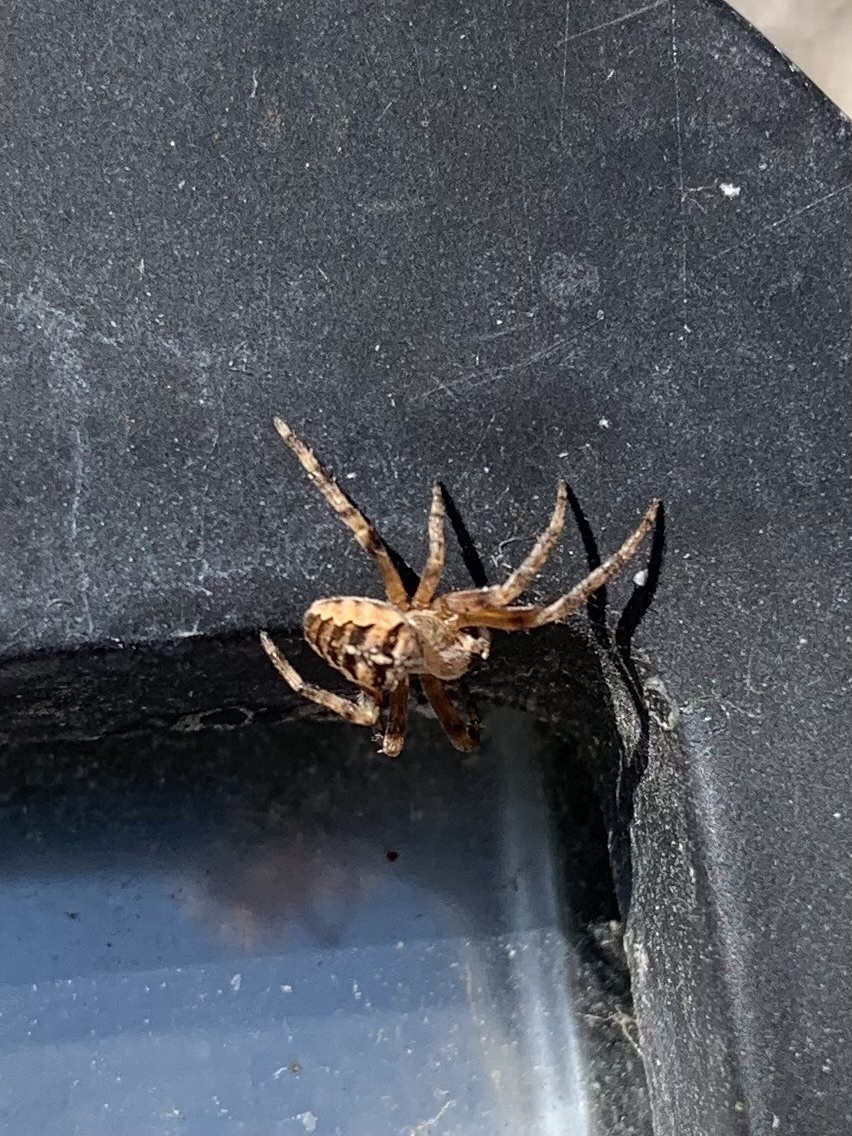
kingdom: Animalia
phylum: Arthropoda
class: Arachnida
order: Araneae
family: Araneidae
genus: Araneus
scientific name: Araneus diadematus
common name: Cross orbweaver
